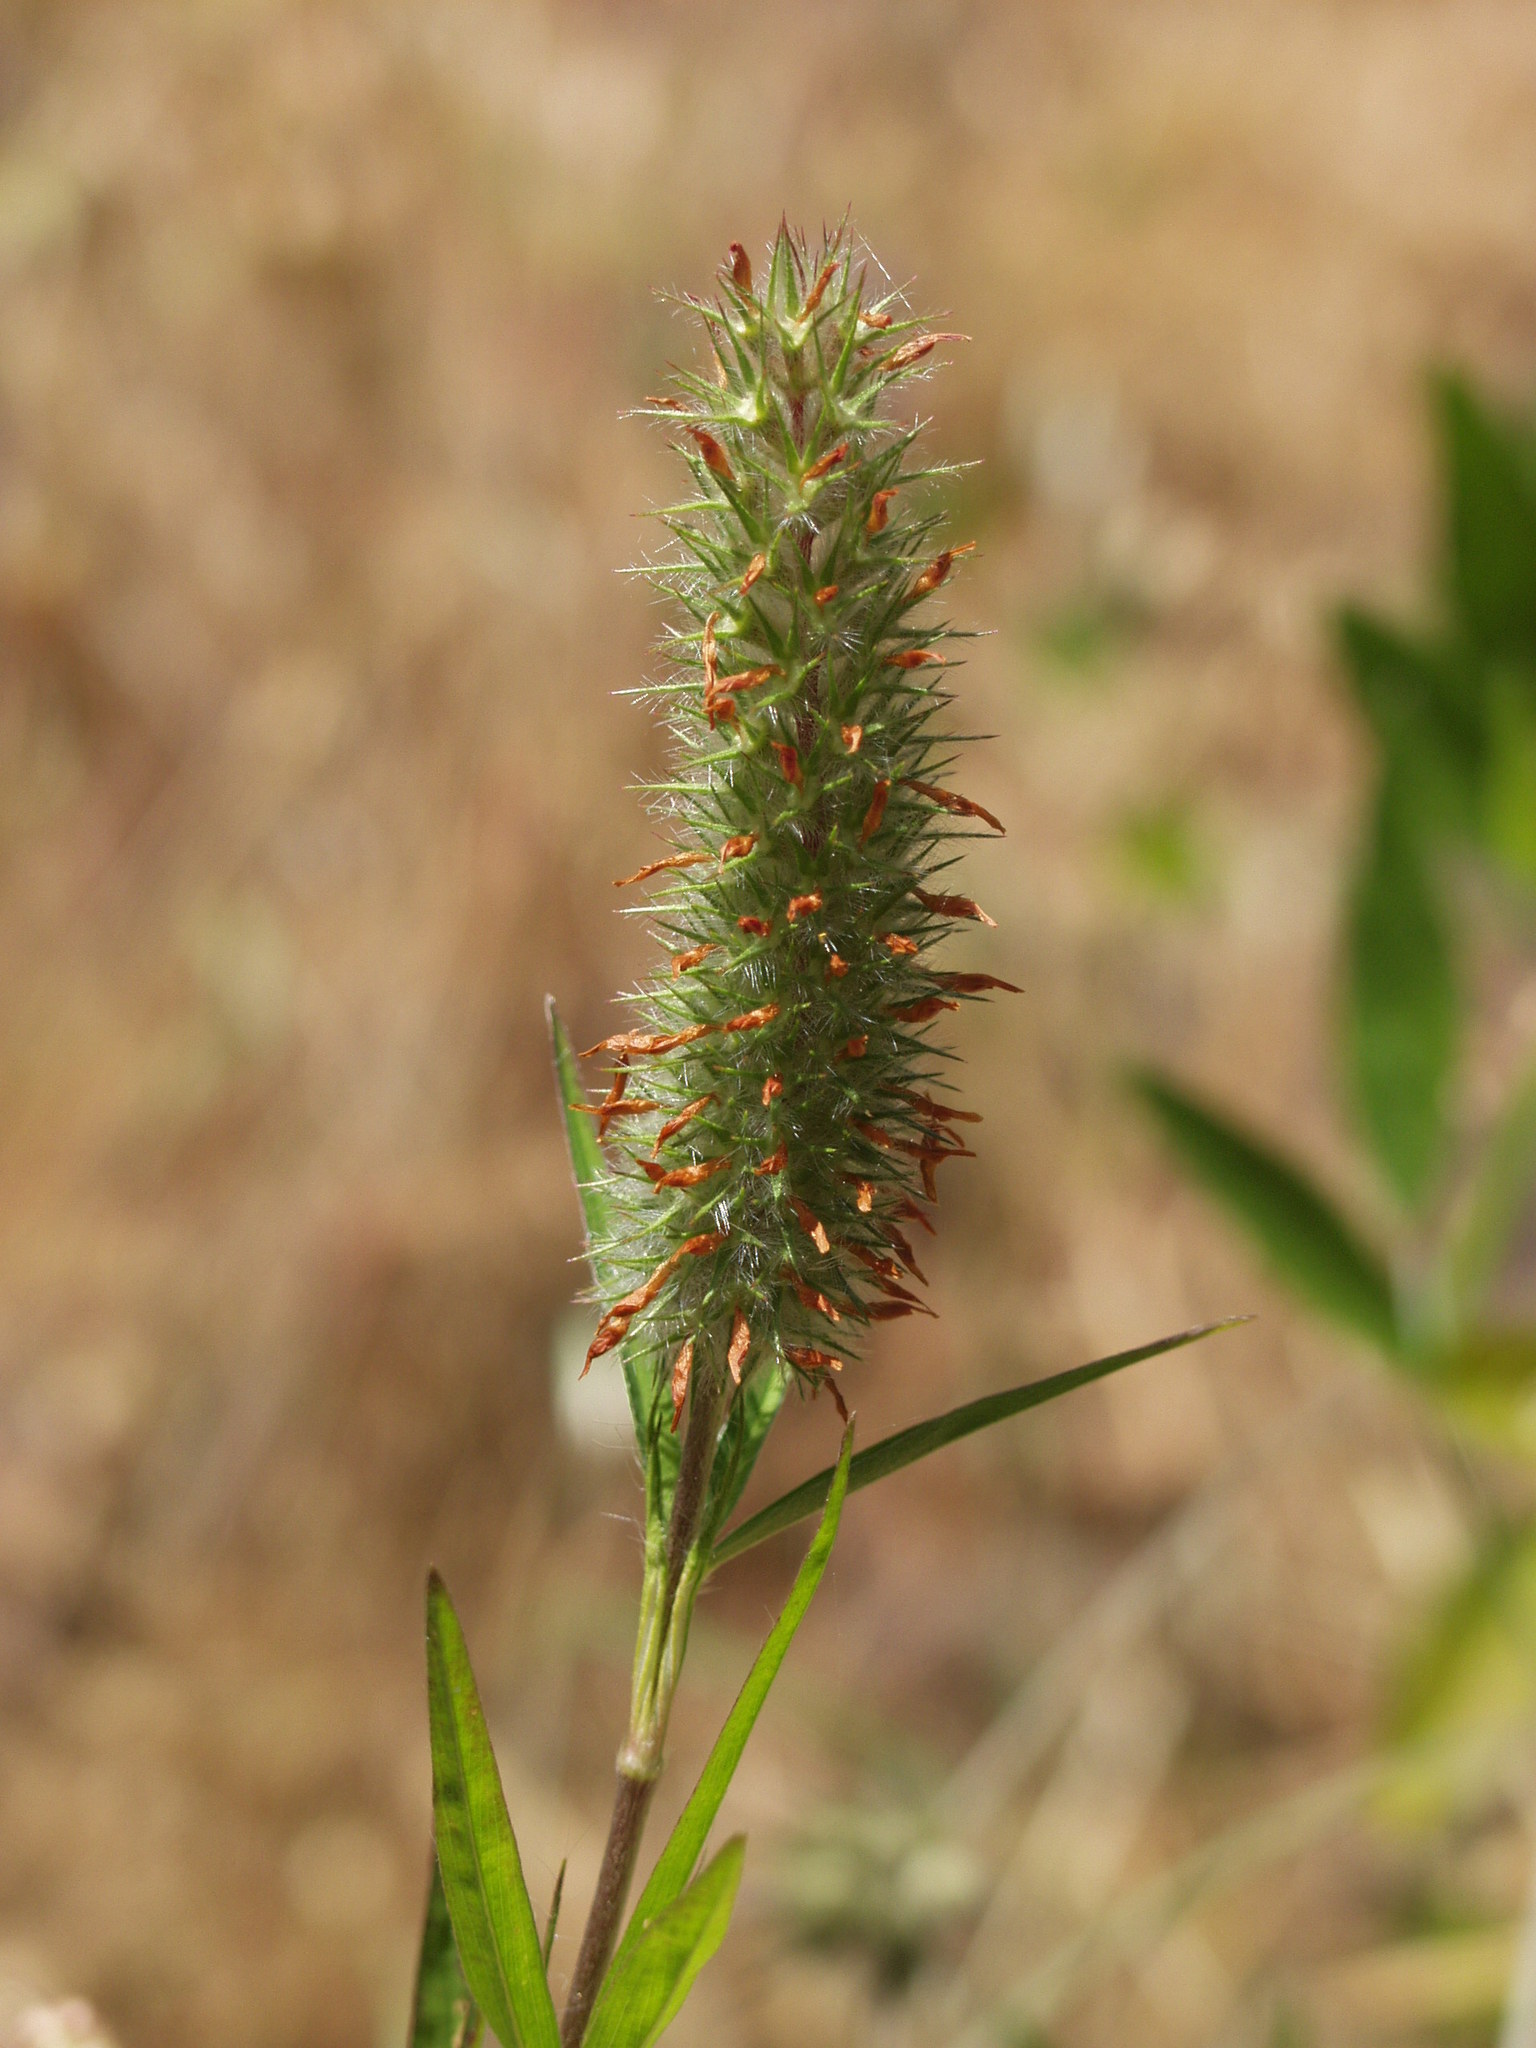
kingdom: Plantae
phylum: Tracheophyta
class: Magnoliopsida
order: Fabales
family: Fabaceae
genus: Trifolium
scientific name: Trifolium angustifolium
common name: Narrow clover
